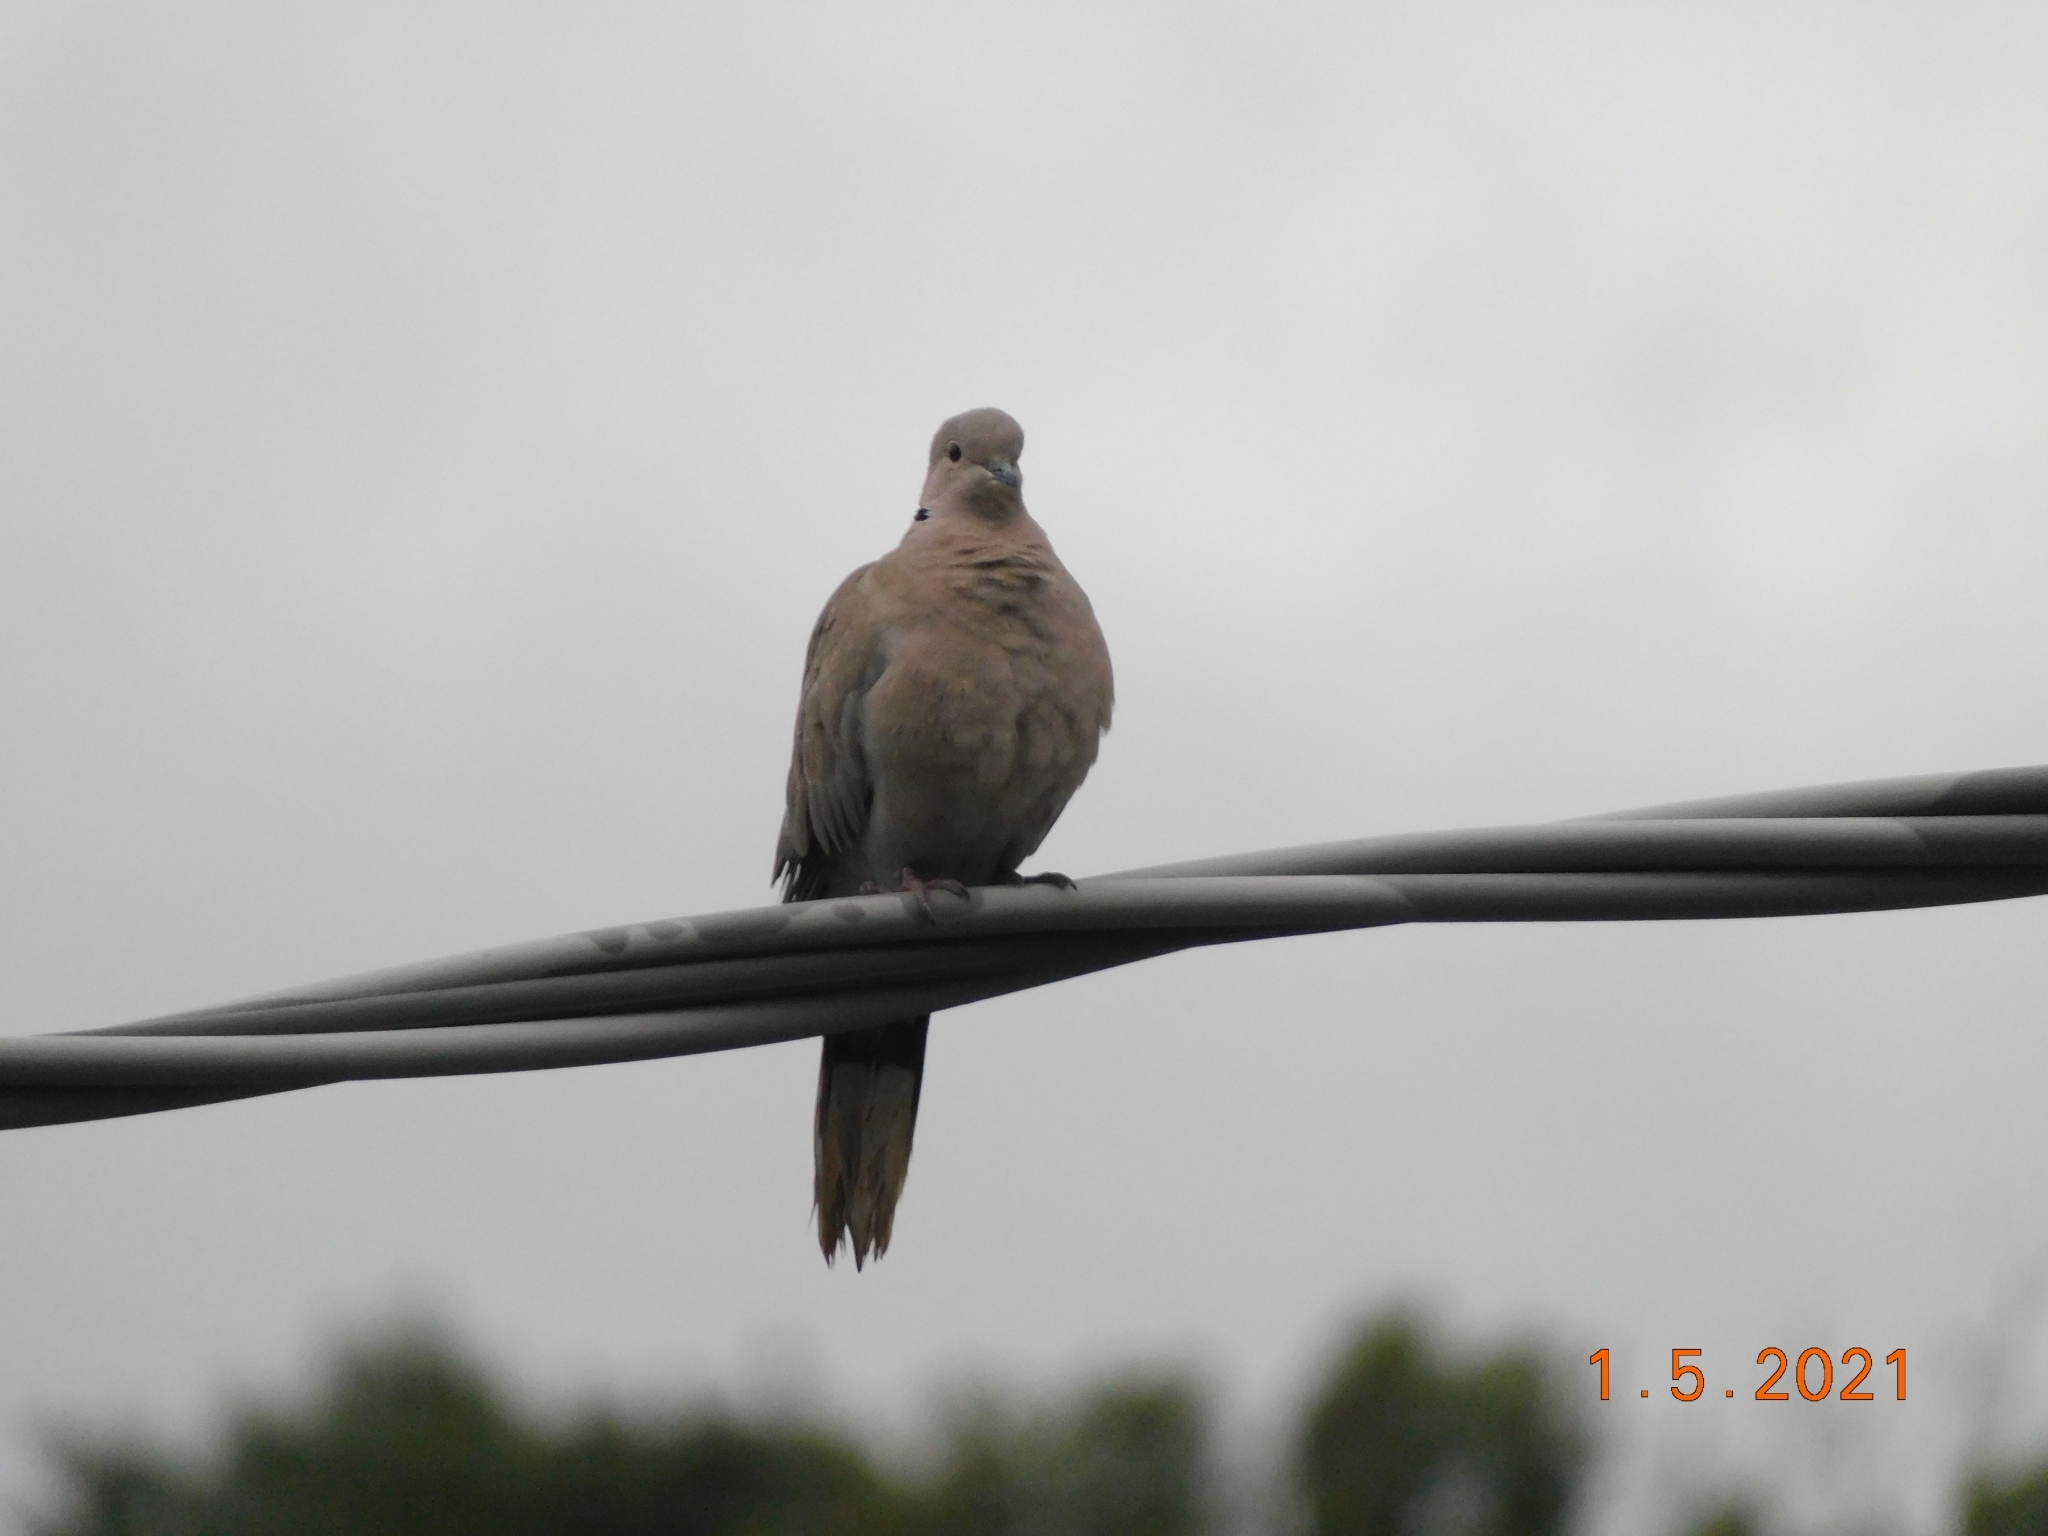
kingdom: Animalia
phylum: Chordata
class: Aves
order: Columbiformes
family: Columbidae
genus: Streptopelia
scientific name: Streptopelia decaocto
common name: Eurasian collared dove
